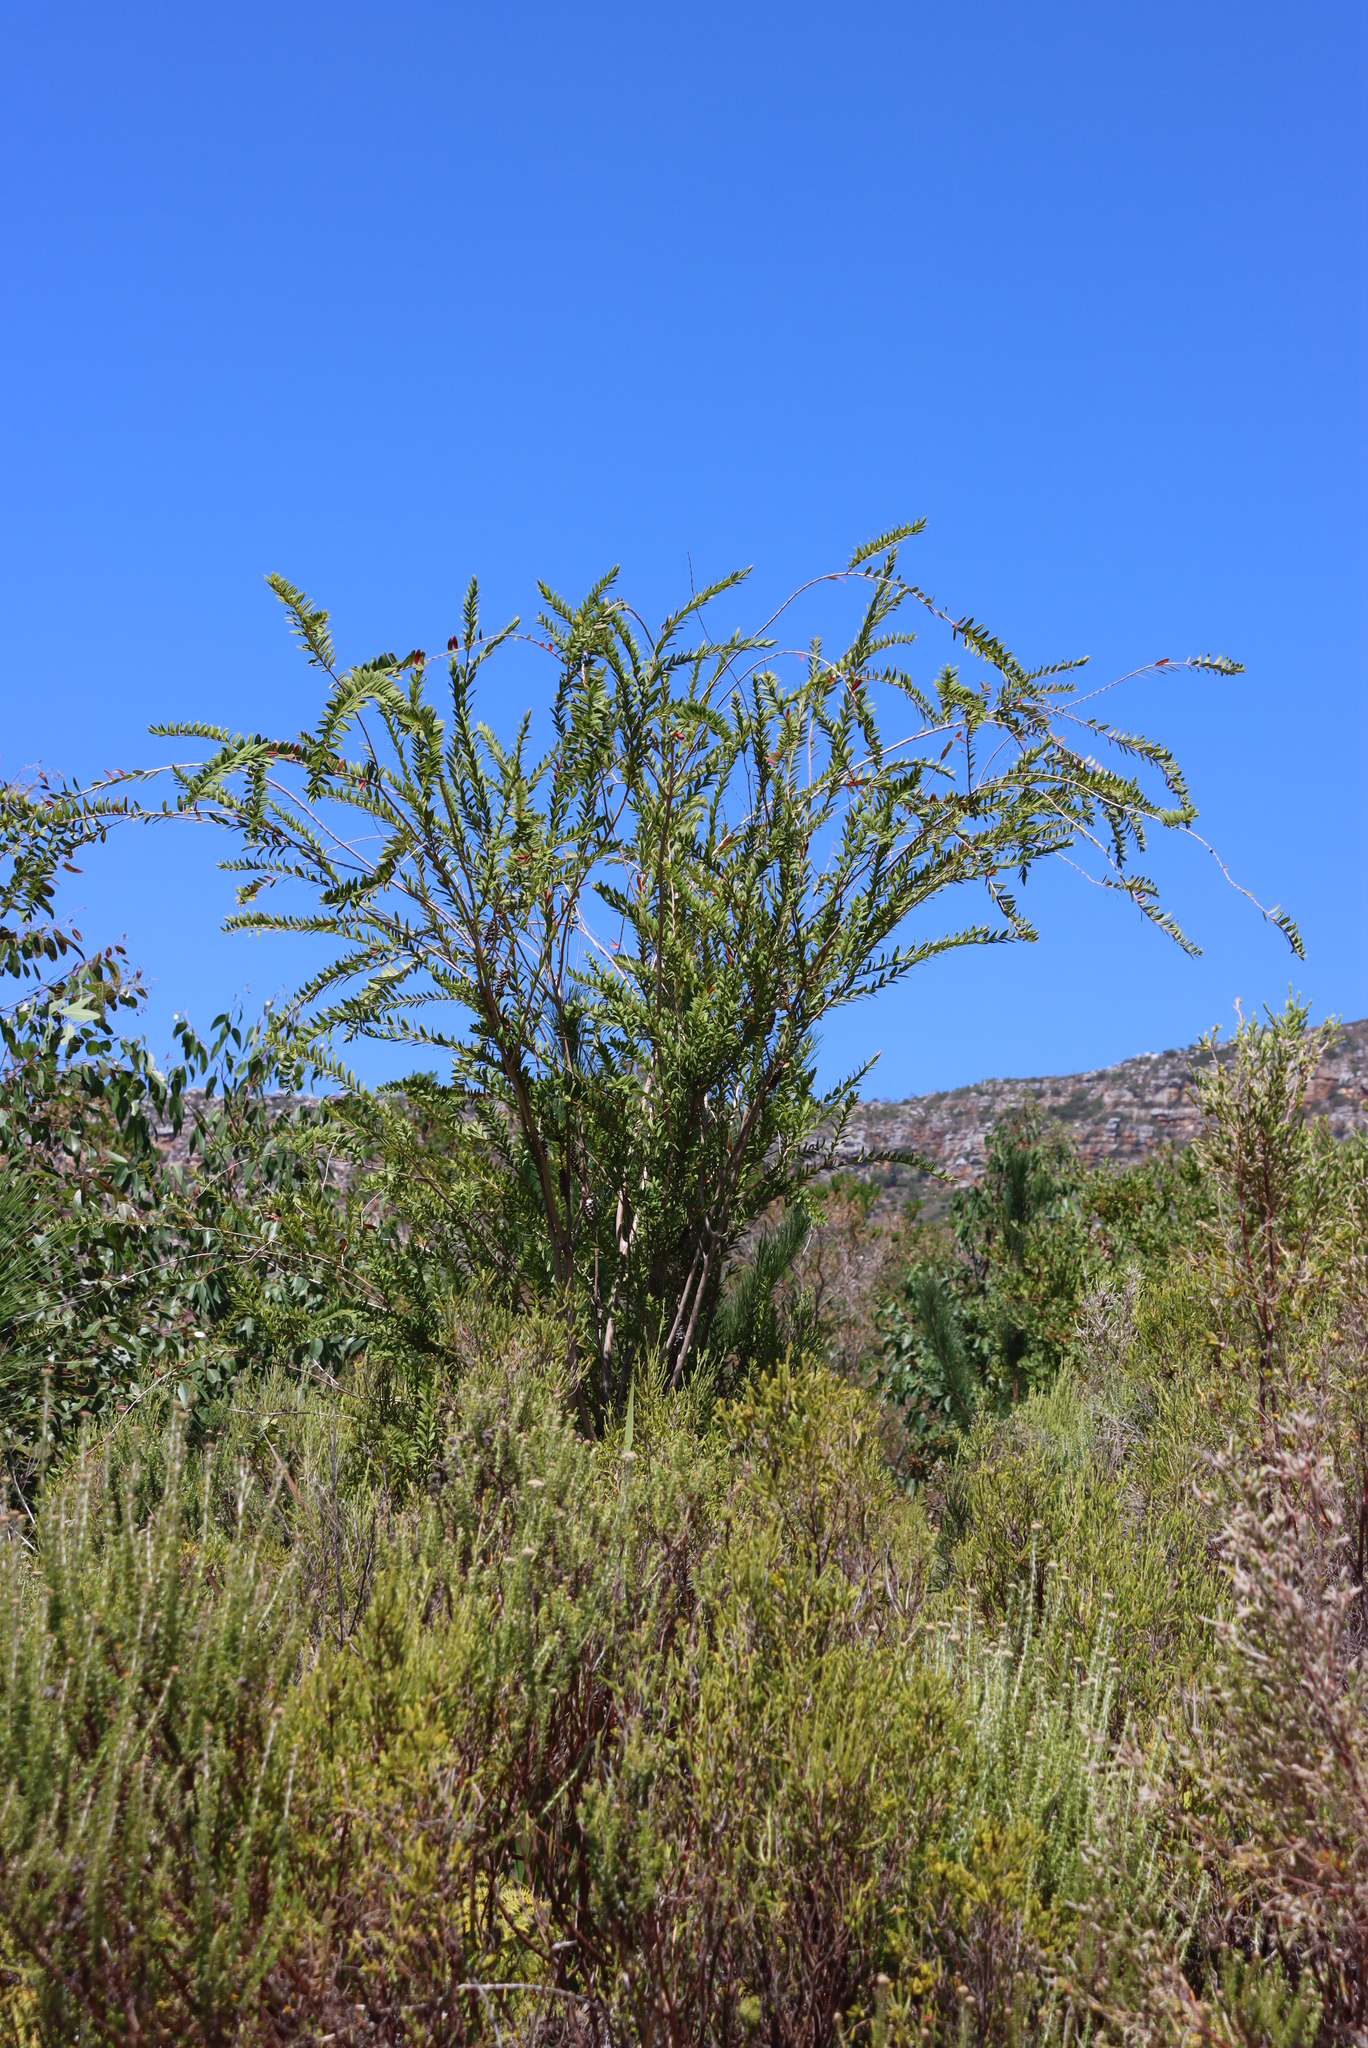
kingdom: Plantae
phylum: Tracheophyta
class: Magnoliopsida
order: Myrtales
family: Myrtaceae
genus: Melaleuca
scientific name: Melaleuca hypericifolia
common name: Red honey myrtle
